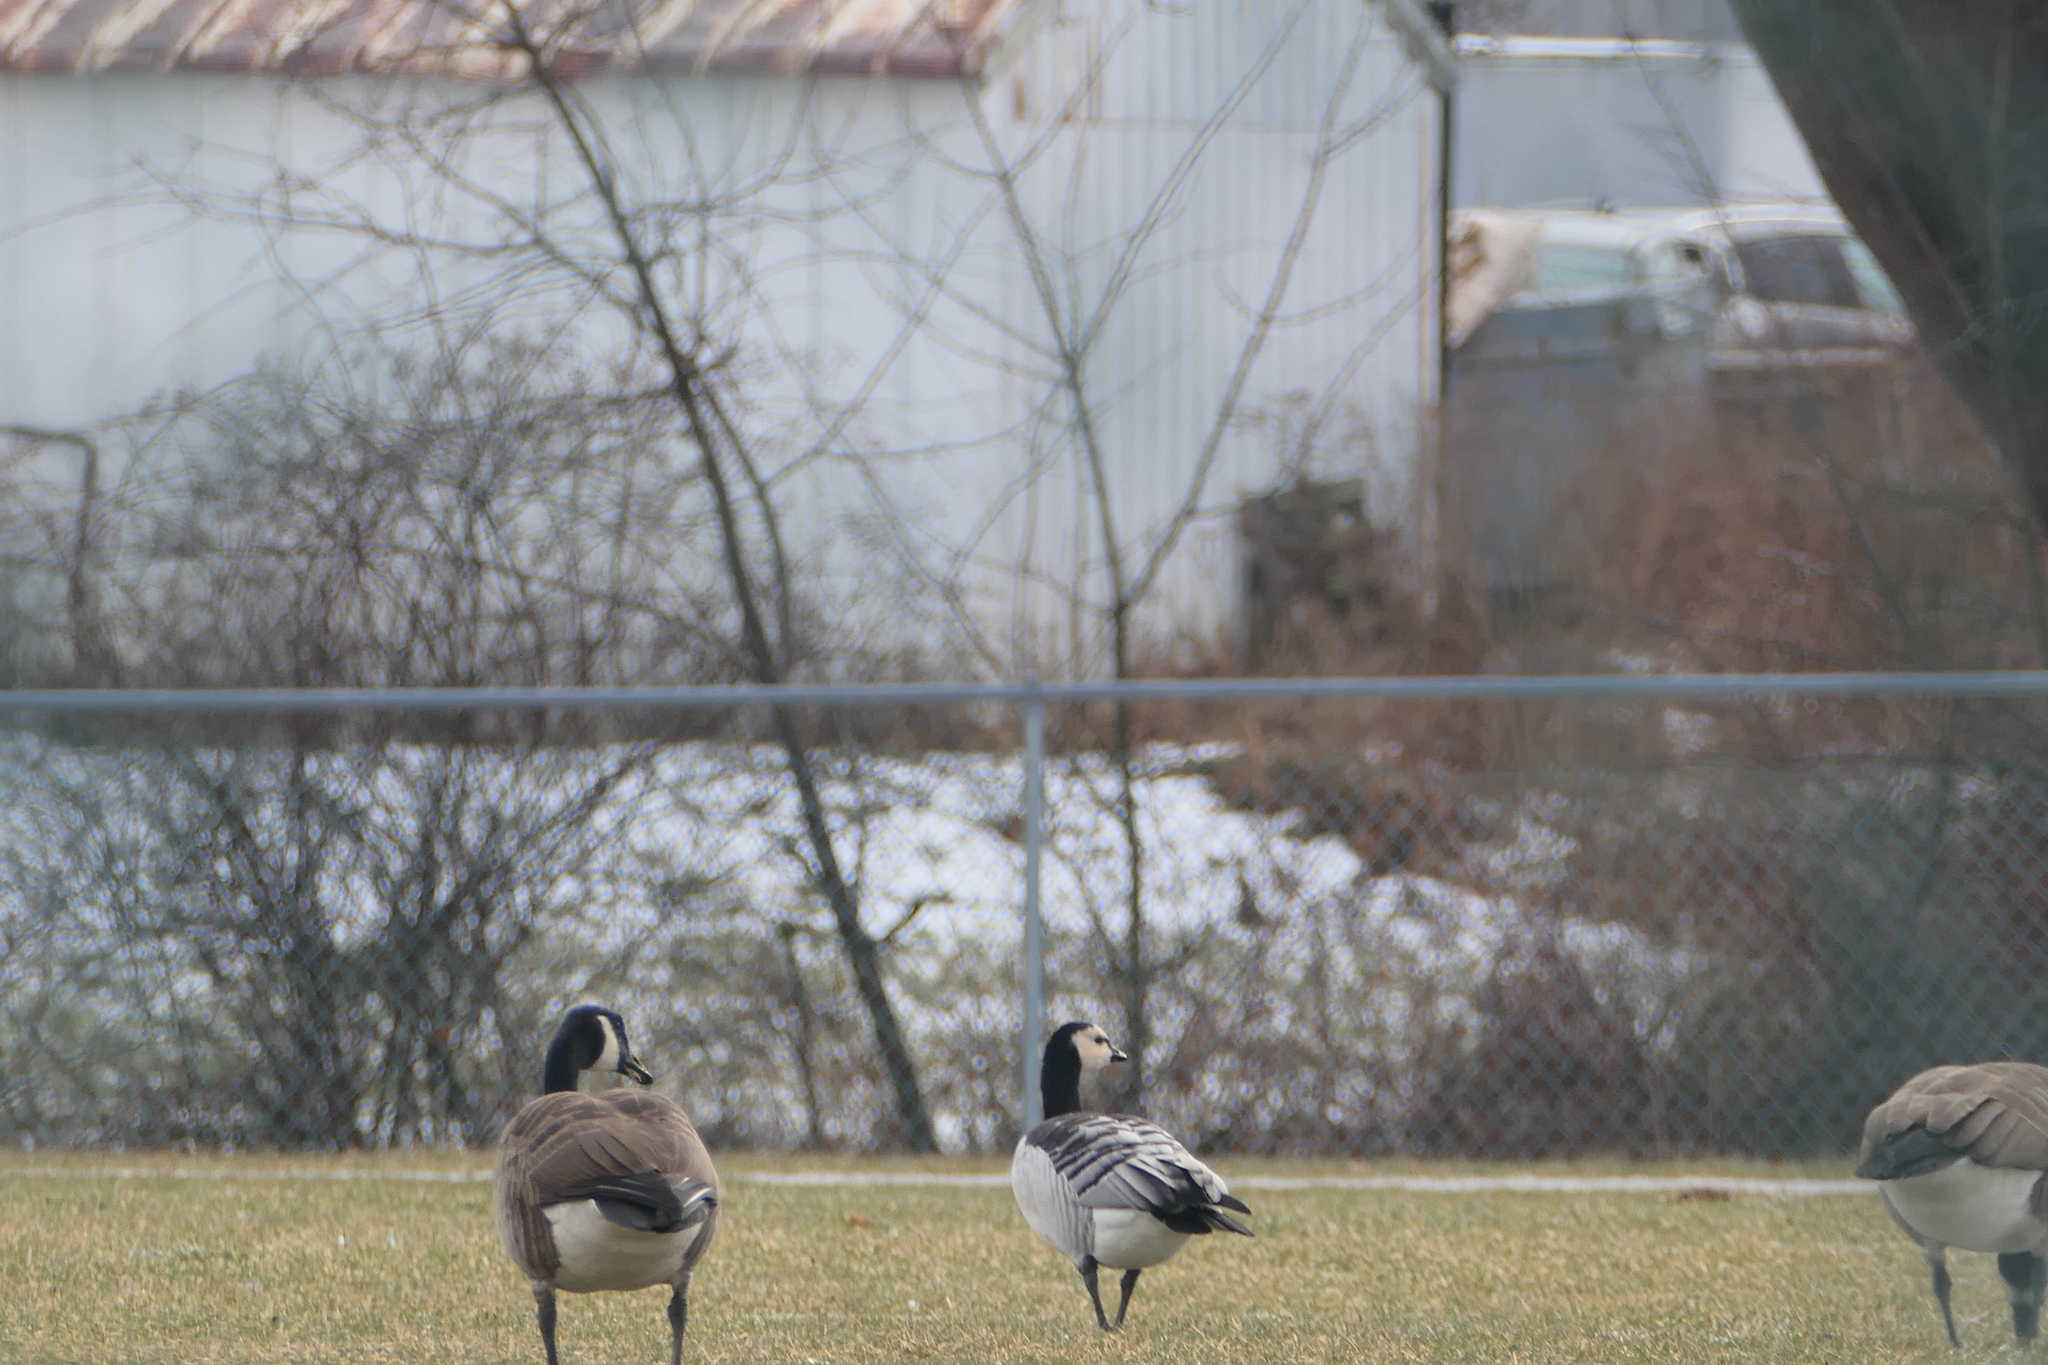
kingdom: Animalia
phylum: Chordata
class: Aves
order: Anseriformes
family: Anatidae
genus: Branta
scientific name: Branta canadensis
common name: Canada goose
